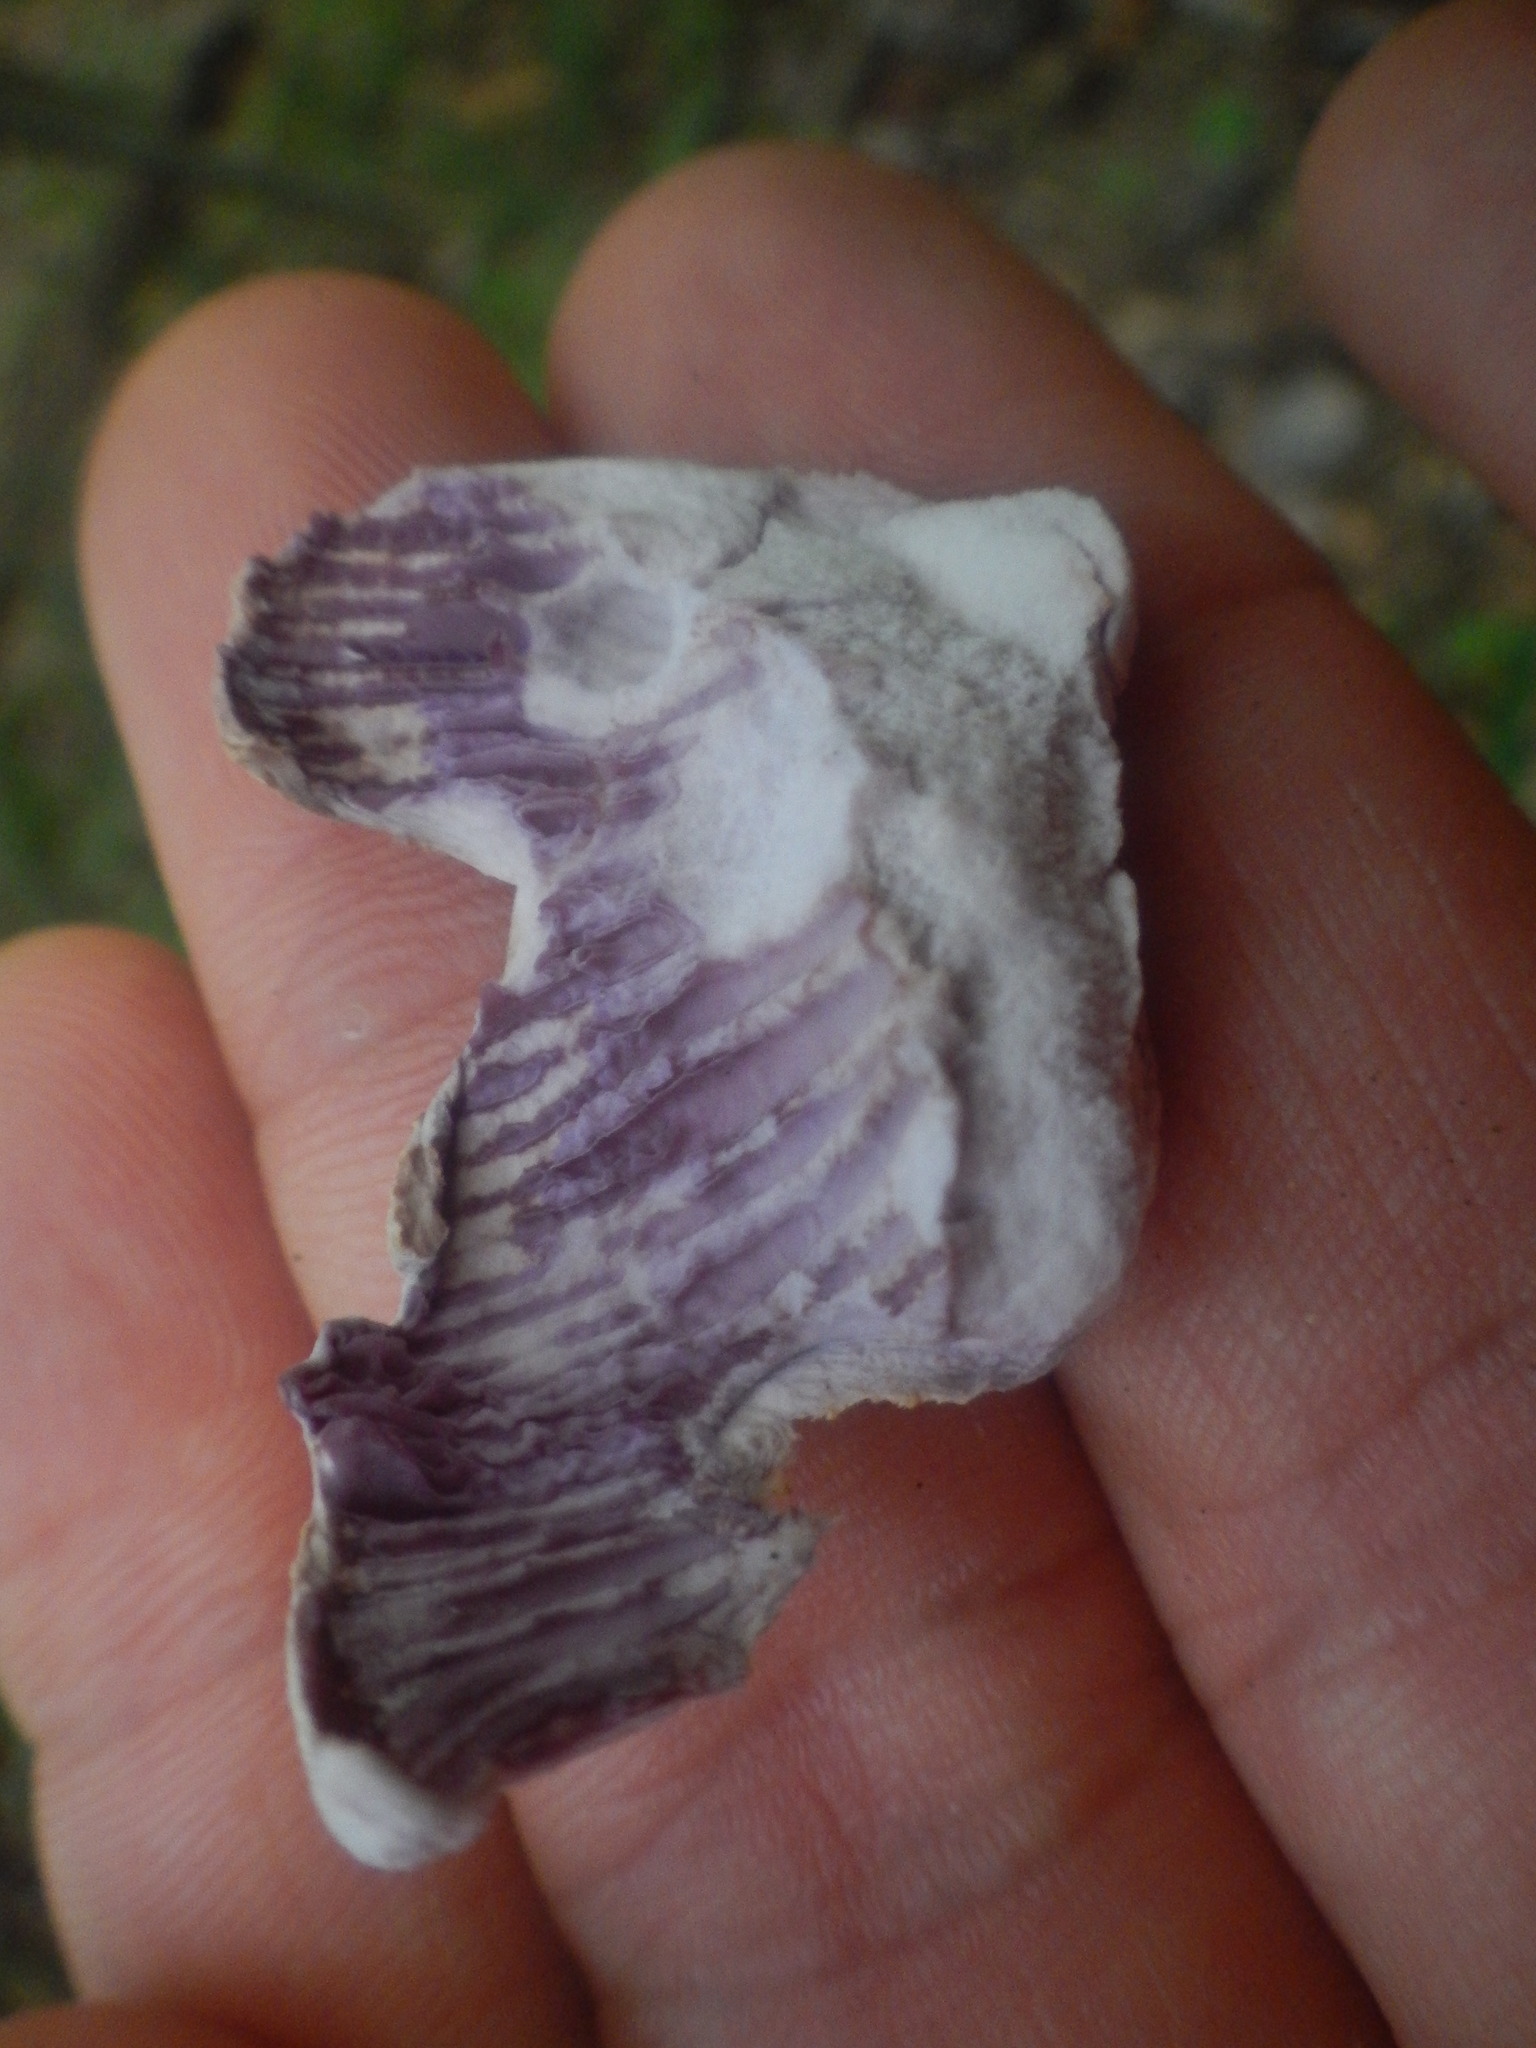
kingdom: Fungi
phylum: Basidiomycota
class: Agaricomycetes
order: Agaricales
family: Hydnangiaceae
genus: Laccaria
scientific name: Laccaria ochropurpurea
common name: Purple laccaria
